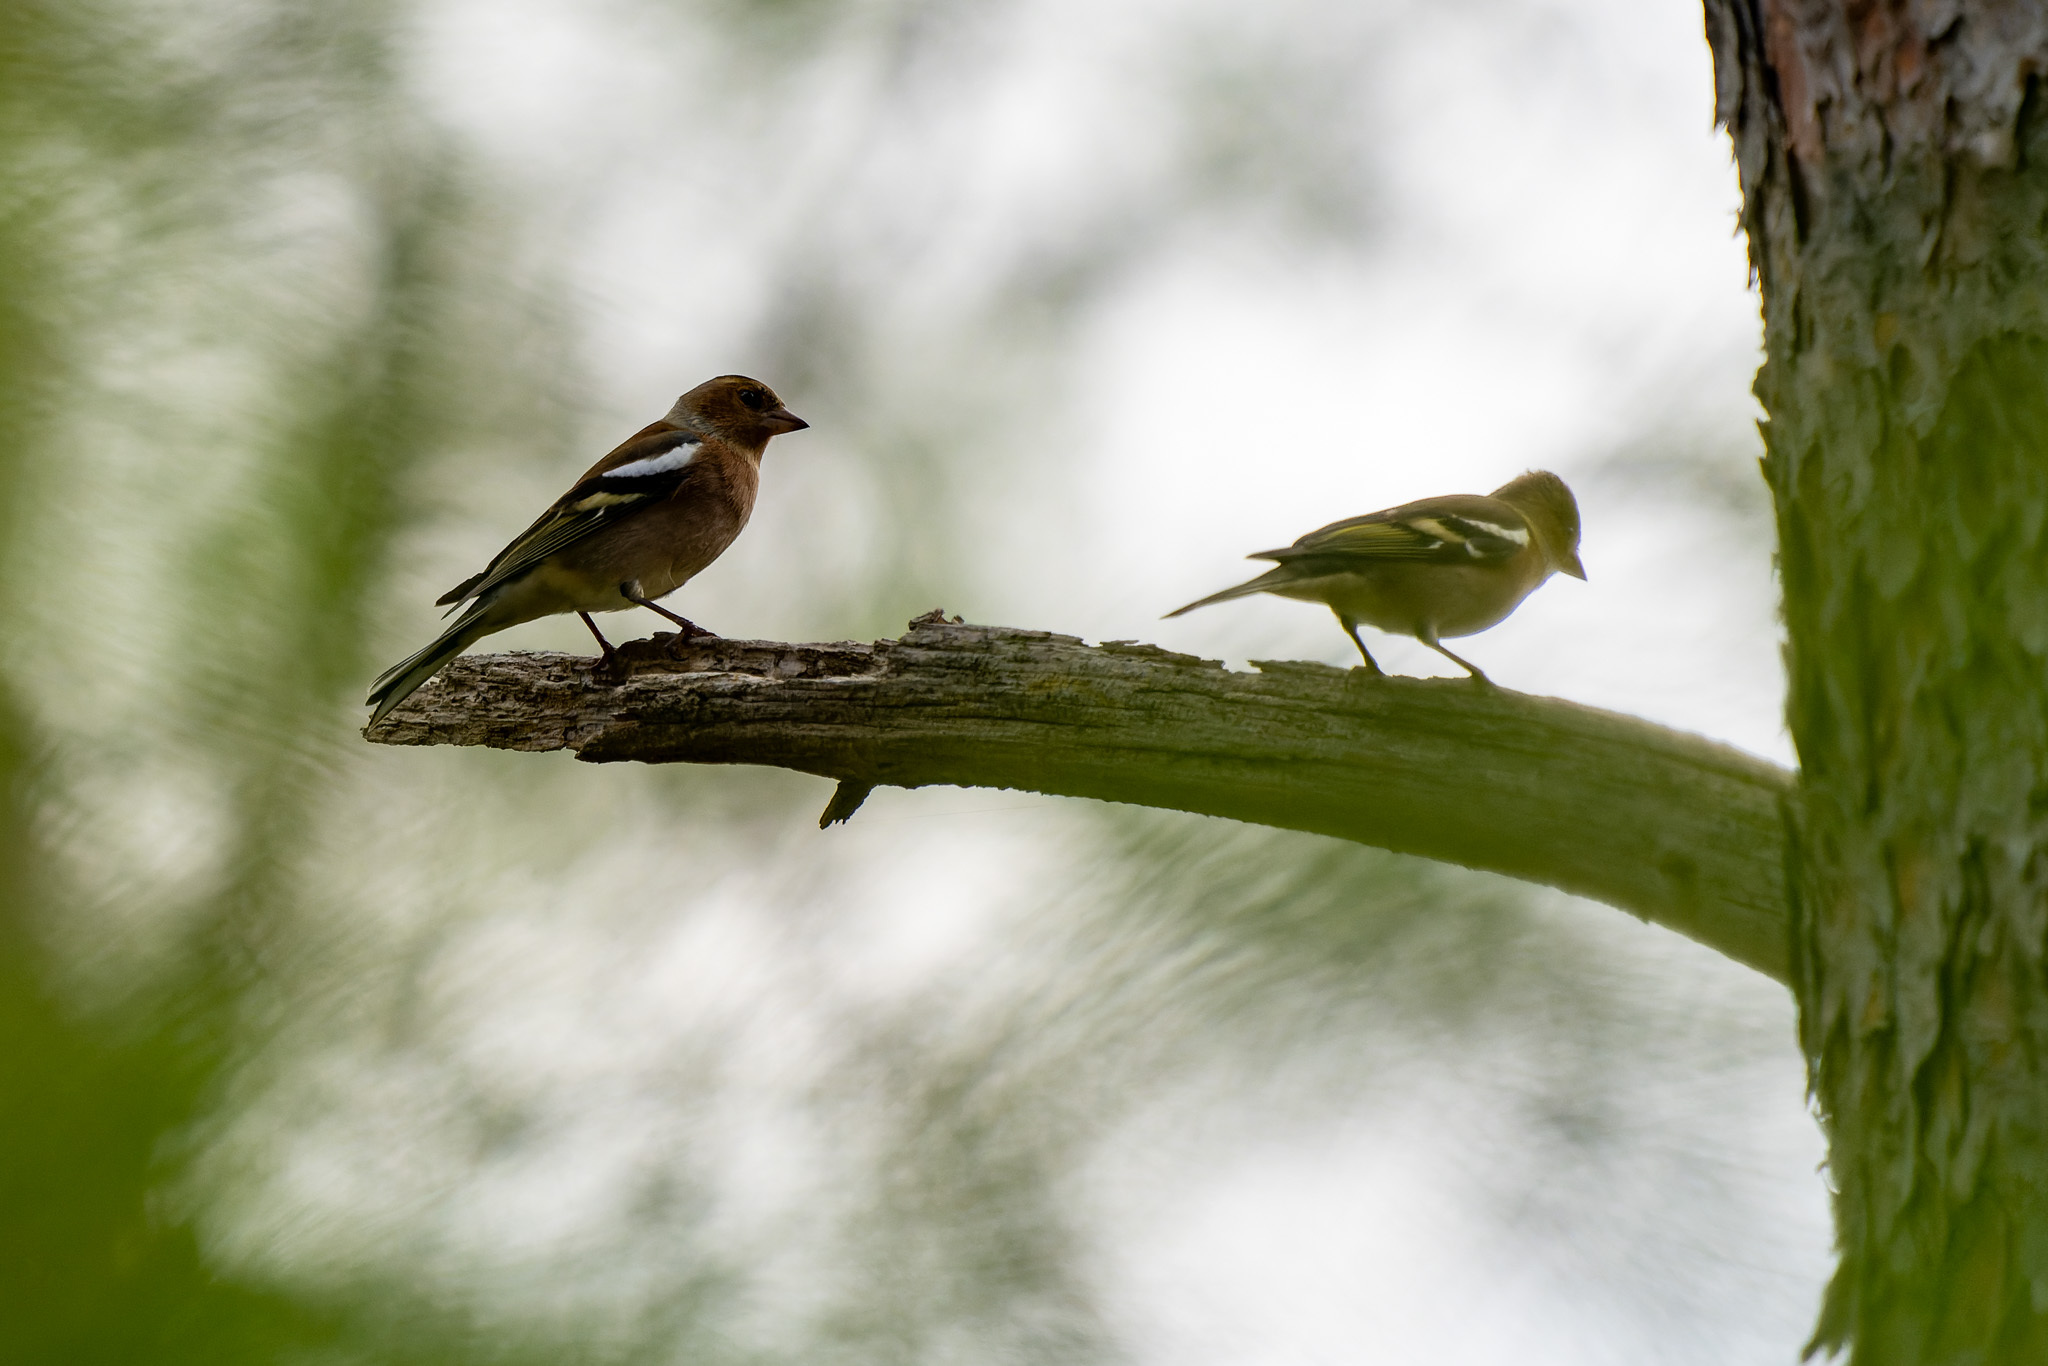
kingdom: Animalia
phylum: Chordata
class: Aves
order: Passeriformes
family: Fringillidae
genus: Fringilla
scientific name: Fringilla coelebs
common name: Common chaffinch
